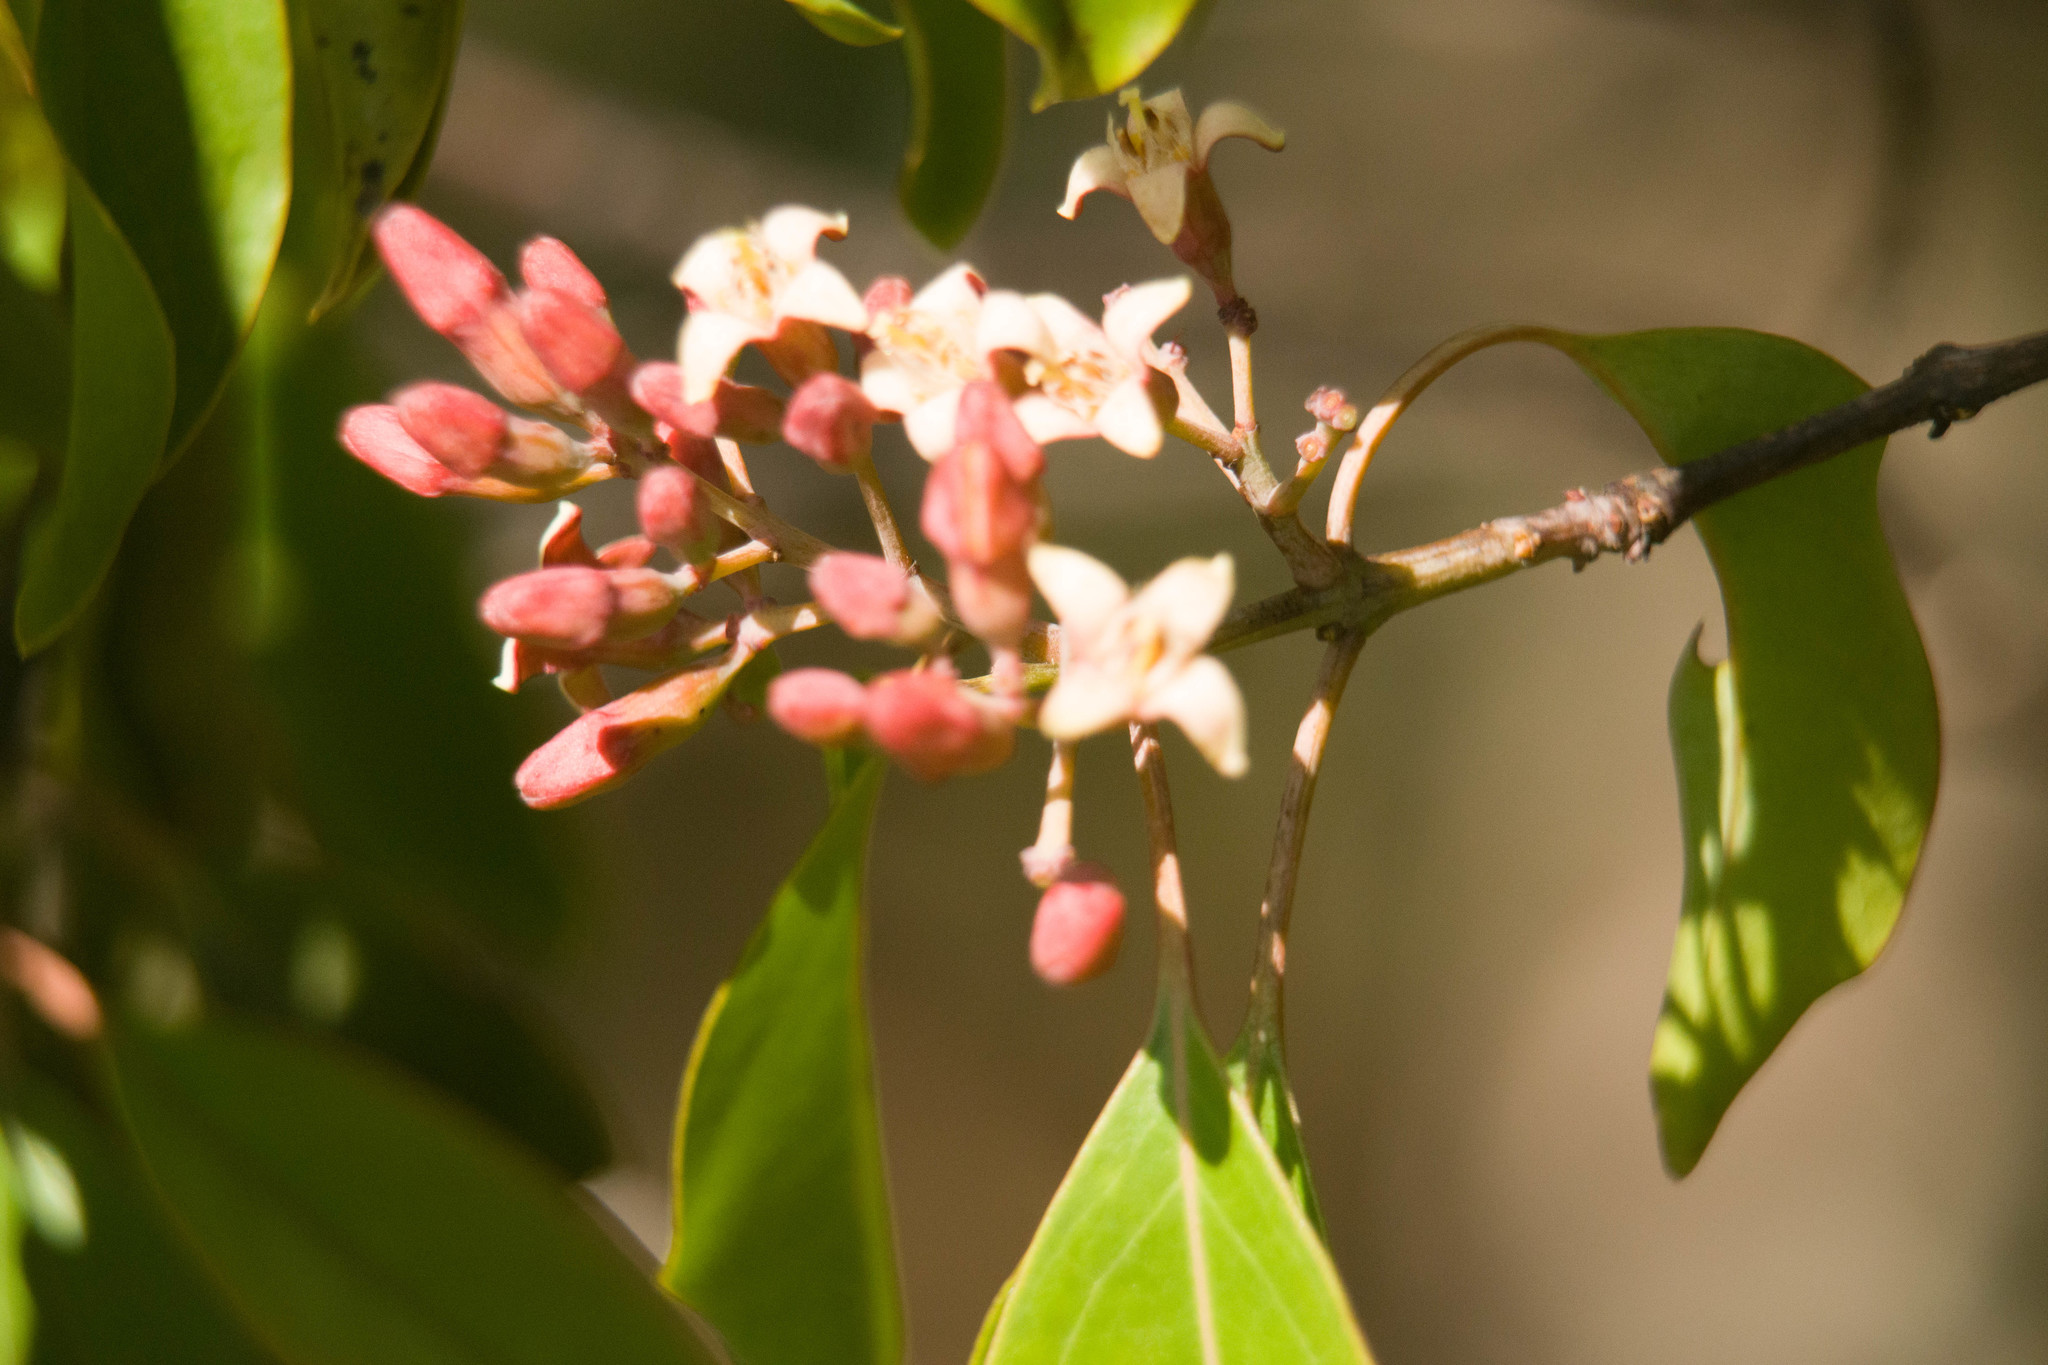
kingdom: Plantae
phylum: Tracheophyta
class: Magnoliopsida
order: Santalales
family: Santalaceae
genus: Santalum
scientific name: Santalum freycinetianum
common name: Lanai sandalwood
